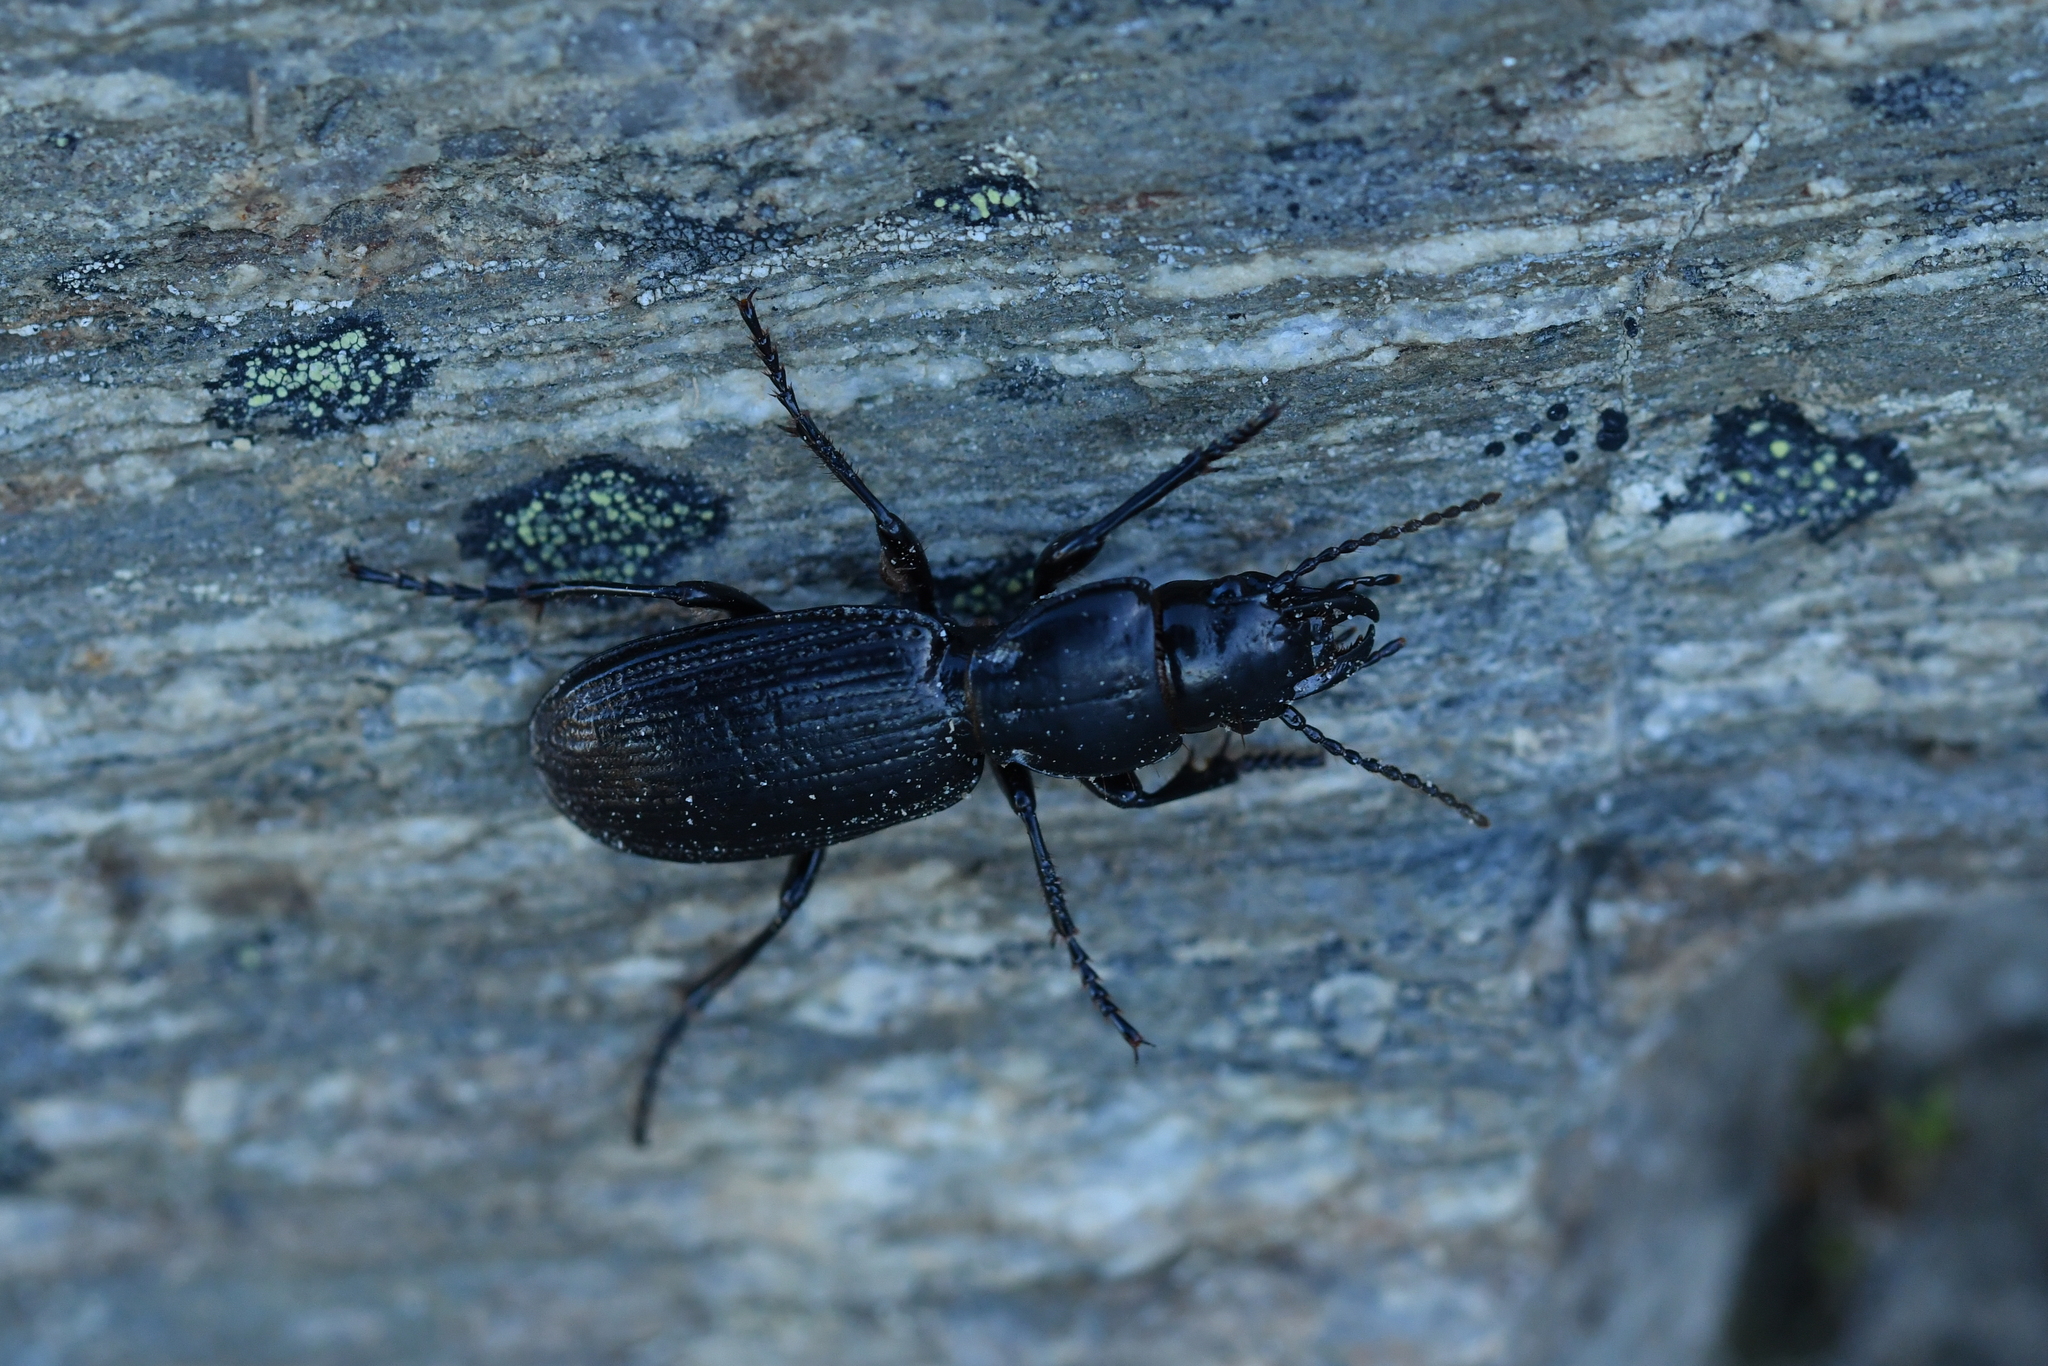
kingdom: Animalia
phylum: Arthropoda
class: Insecta
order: Coleoptera
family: Carabidae
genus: Mecodema
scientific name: Mecodema rex
